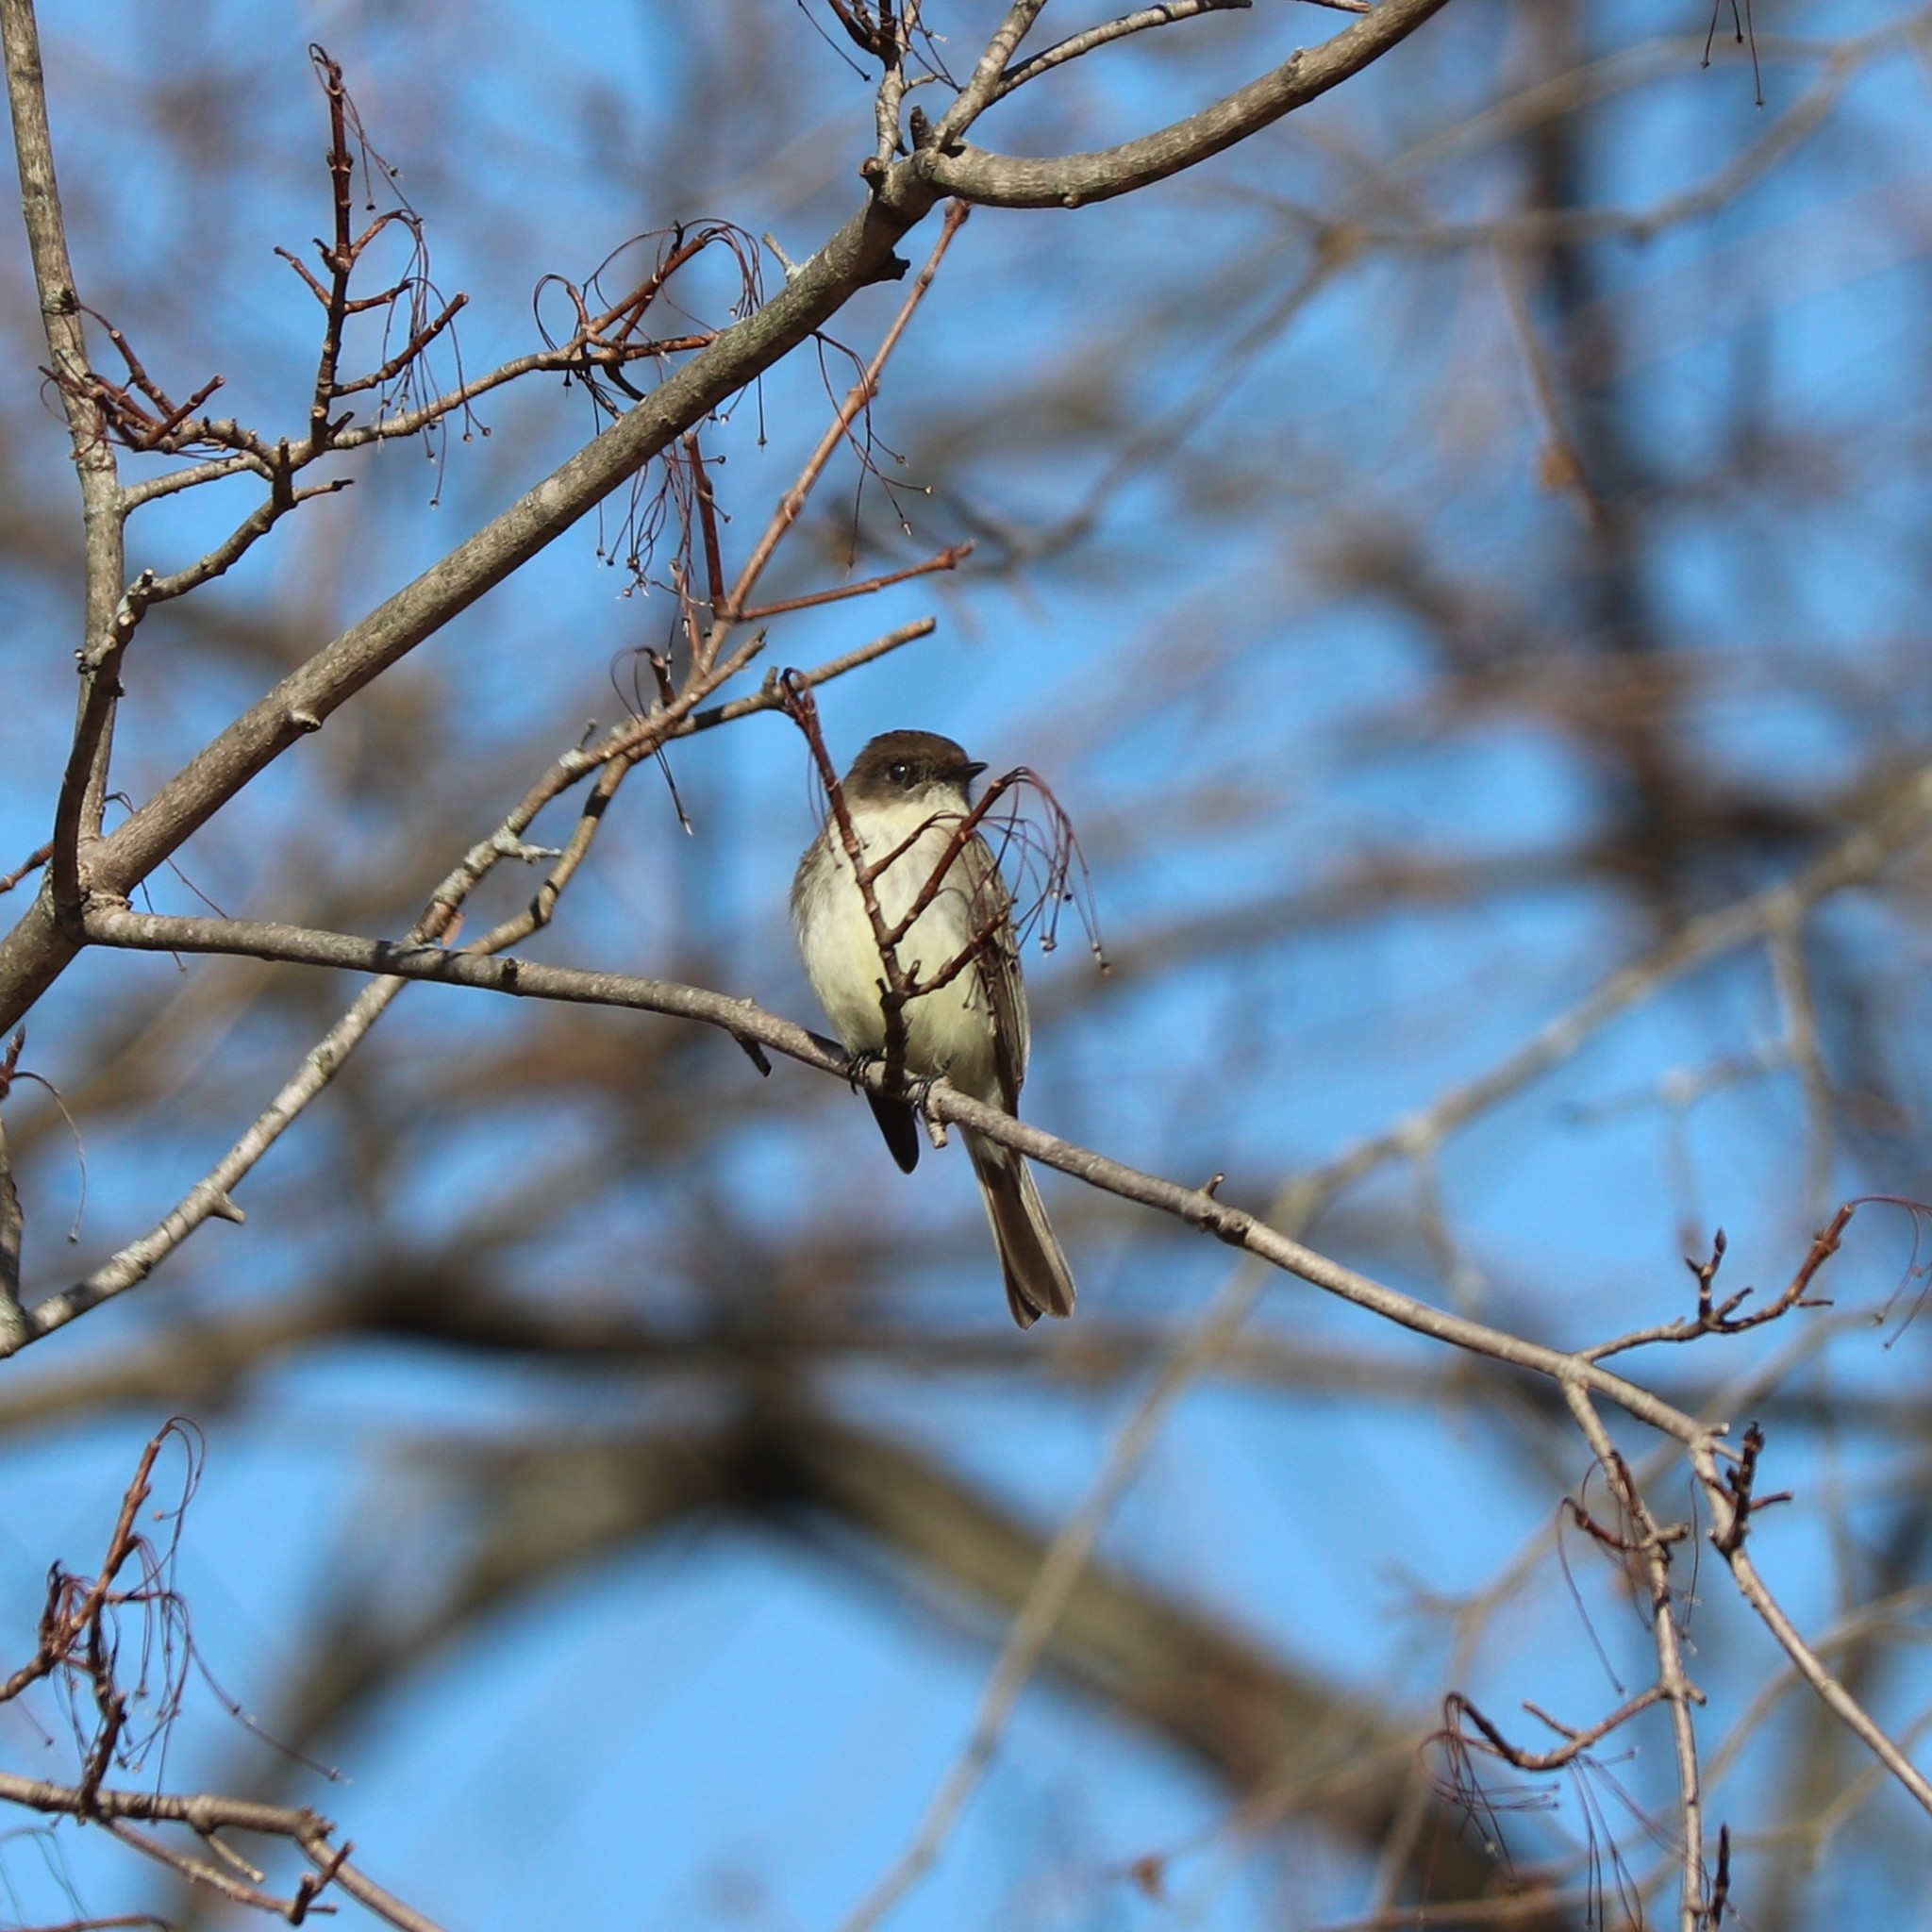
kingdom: Animalia
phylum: Chordata
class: Aves
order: Passeriformes
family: Tyrannidae
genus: Sayornis
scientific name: Sayornis phoebe
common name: Eastern phoebe
